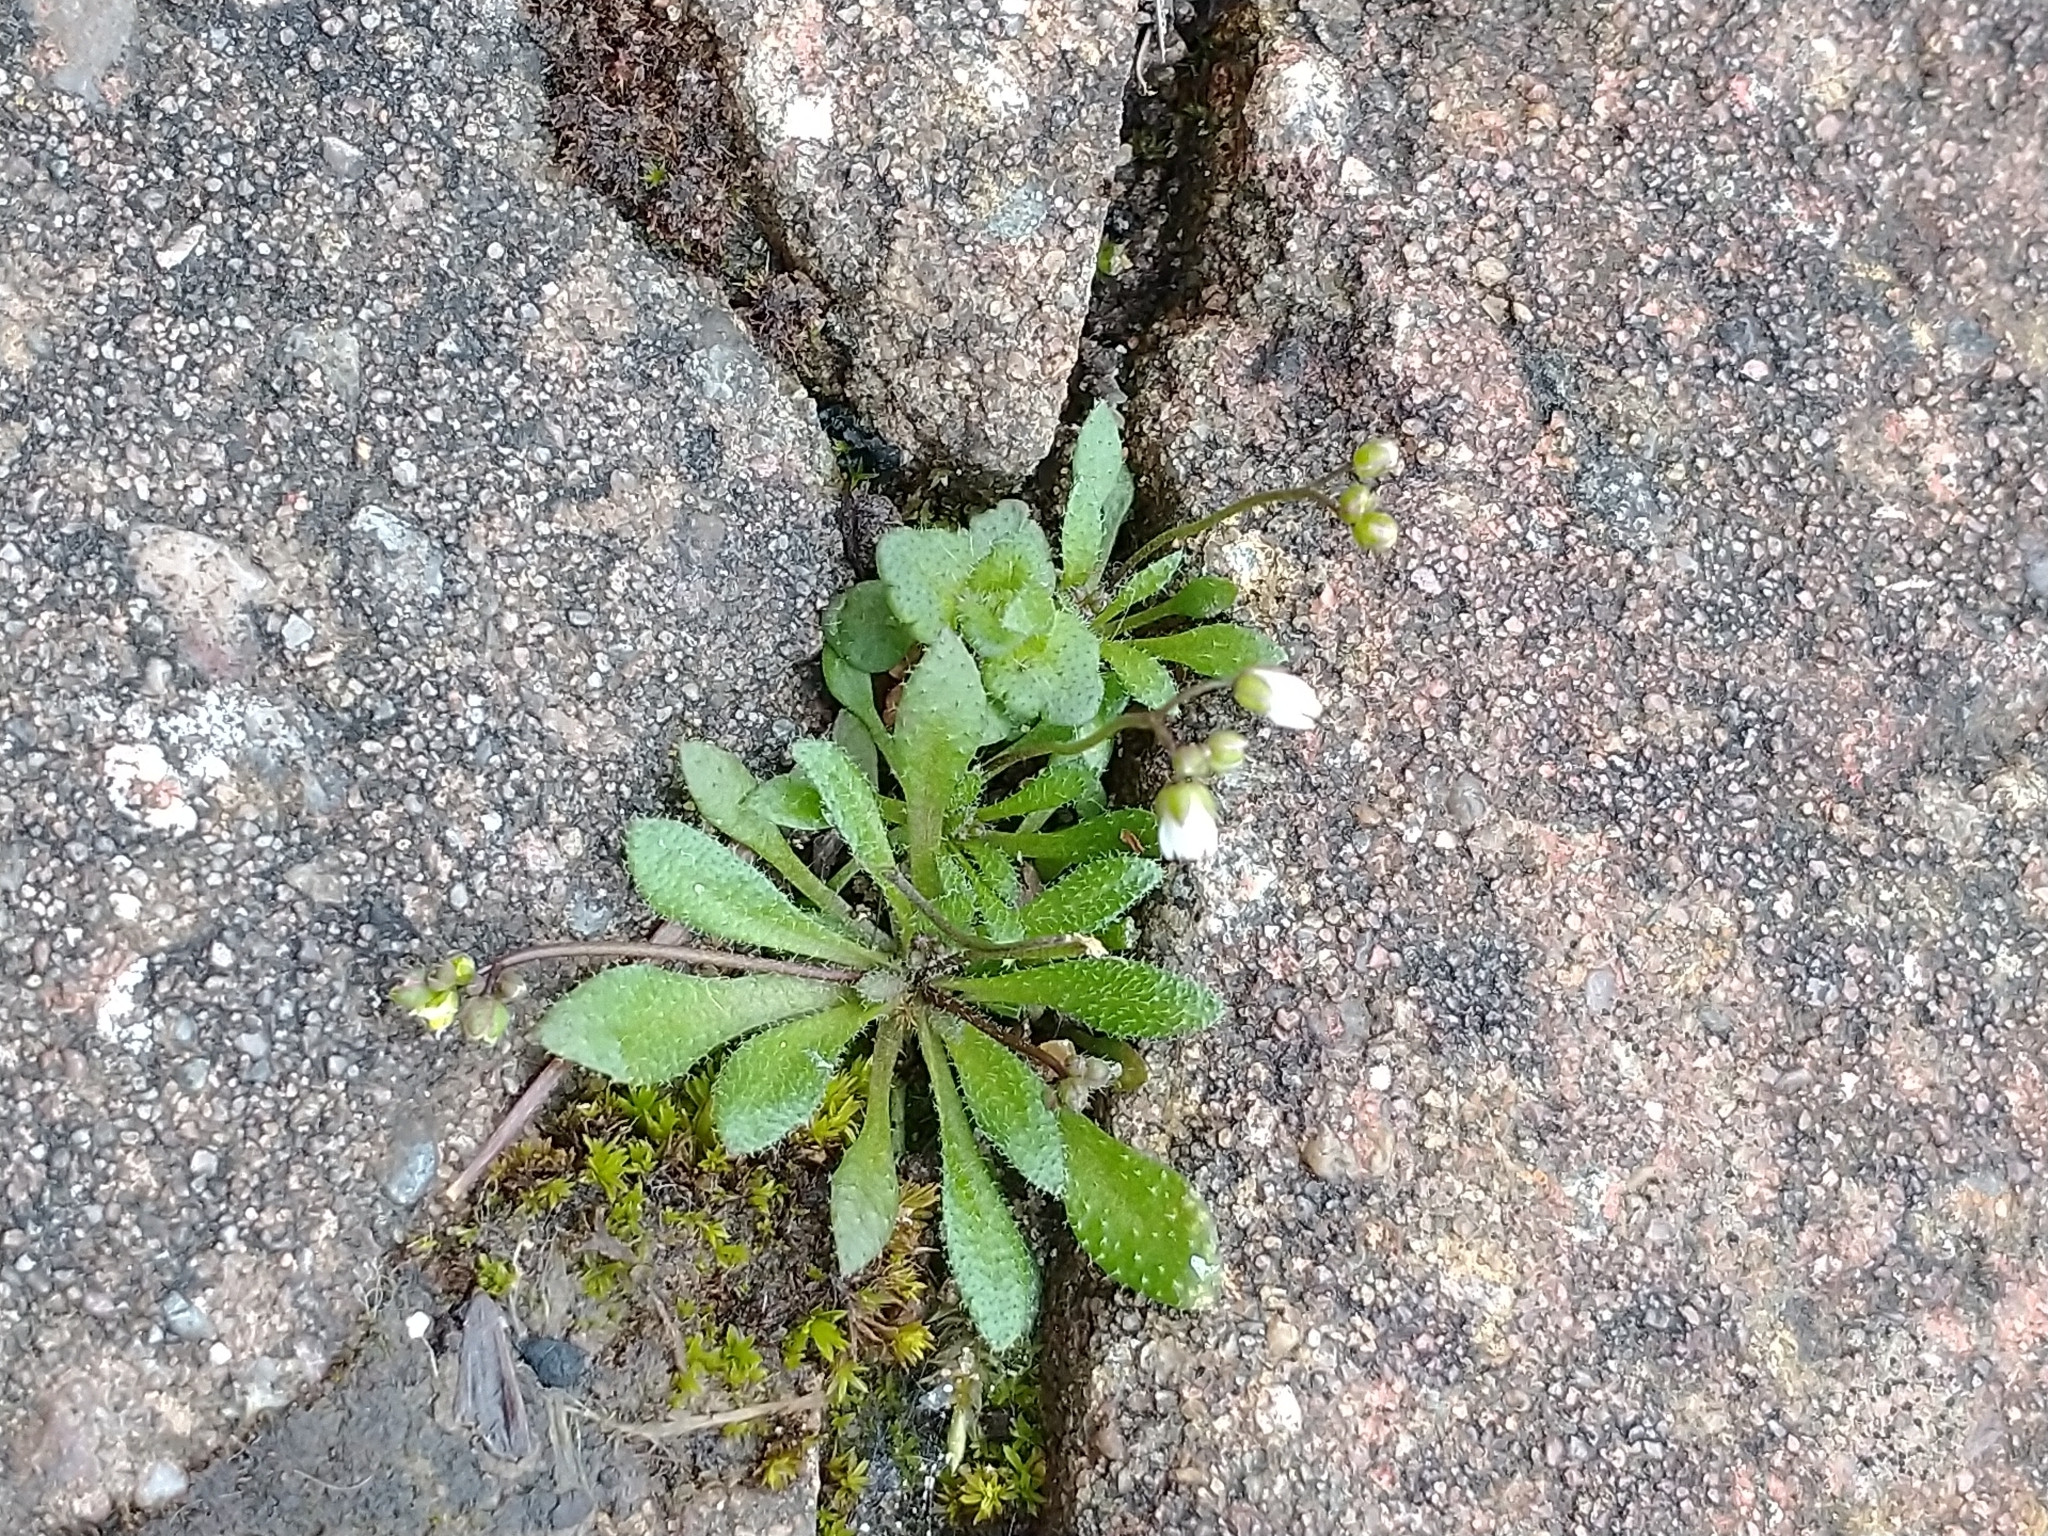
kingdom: Plantae
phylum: Tracheophyta
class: Magnoliopsida
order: Brassicales
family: Brassicaceae
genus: Draba
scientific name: Draba verna
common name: Spring draba
